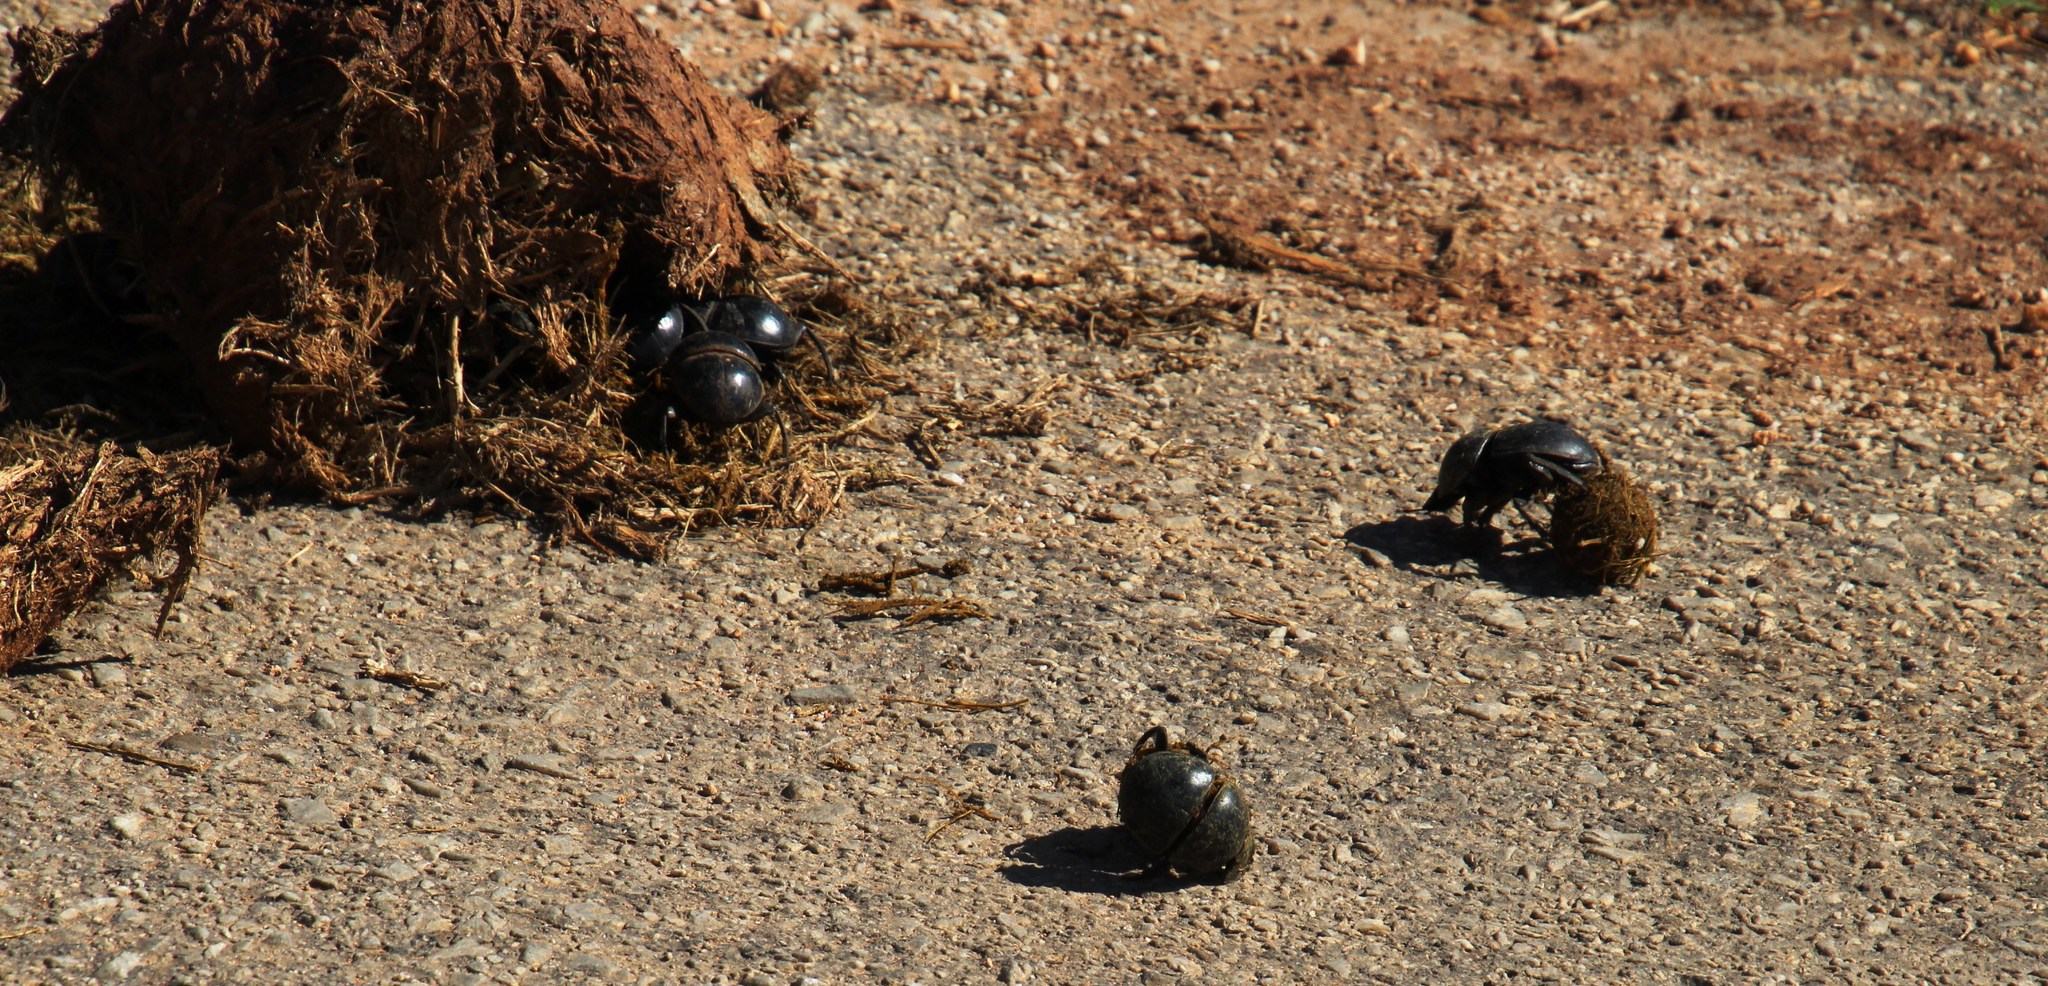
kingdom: Animalia
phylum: Arthropoda
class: Insecta
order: Coleoptera
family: Scarabaeidae
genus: Circellium
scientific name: Circellium bacchus
